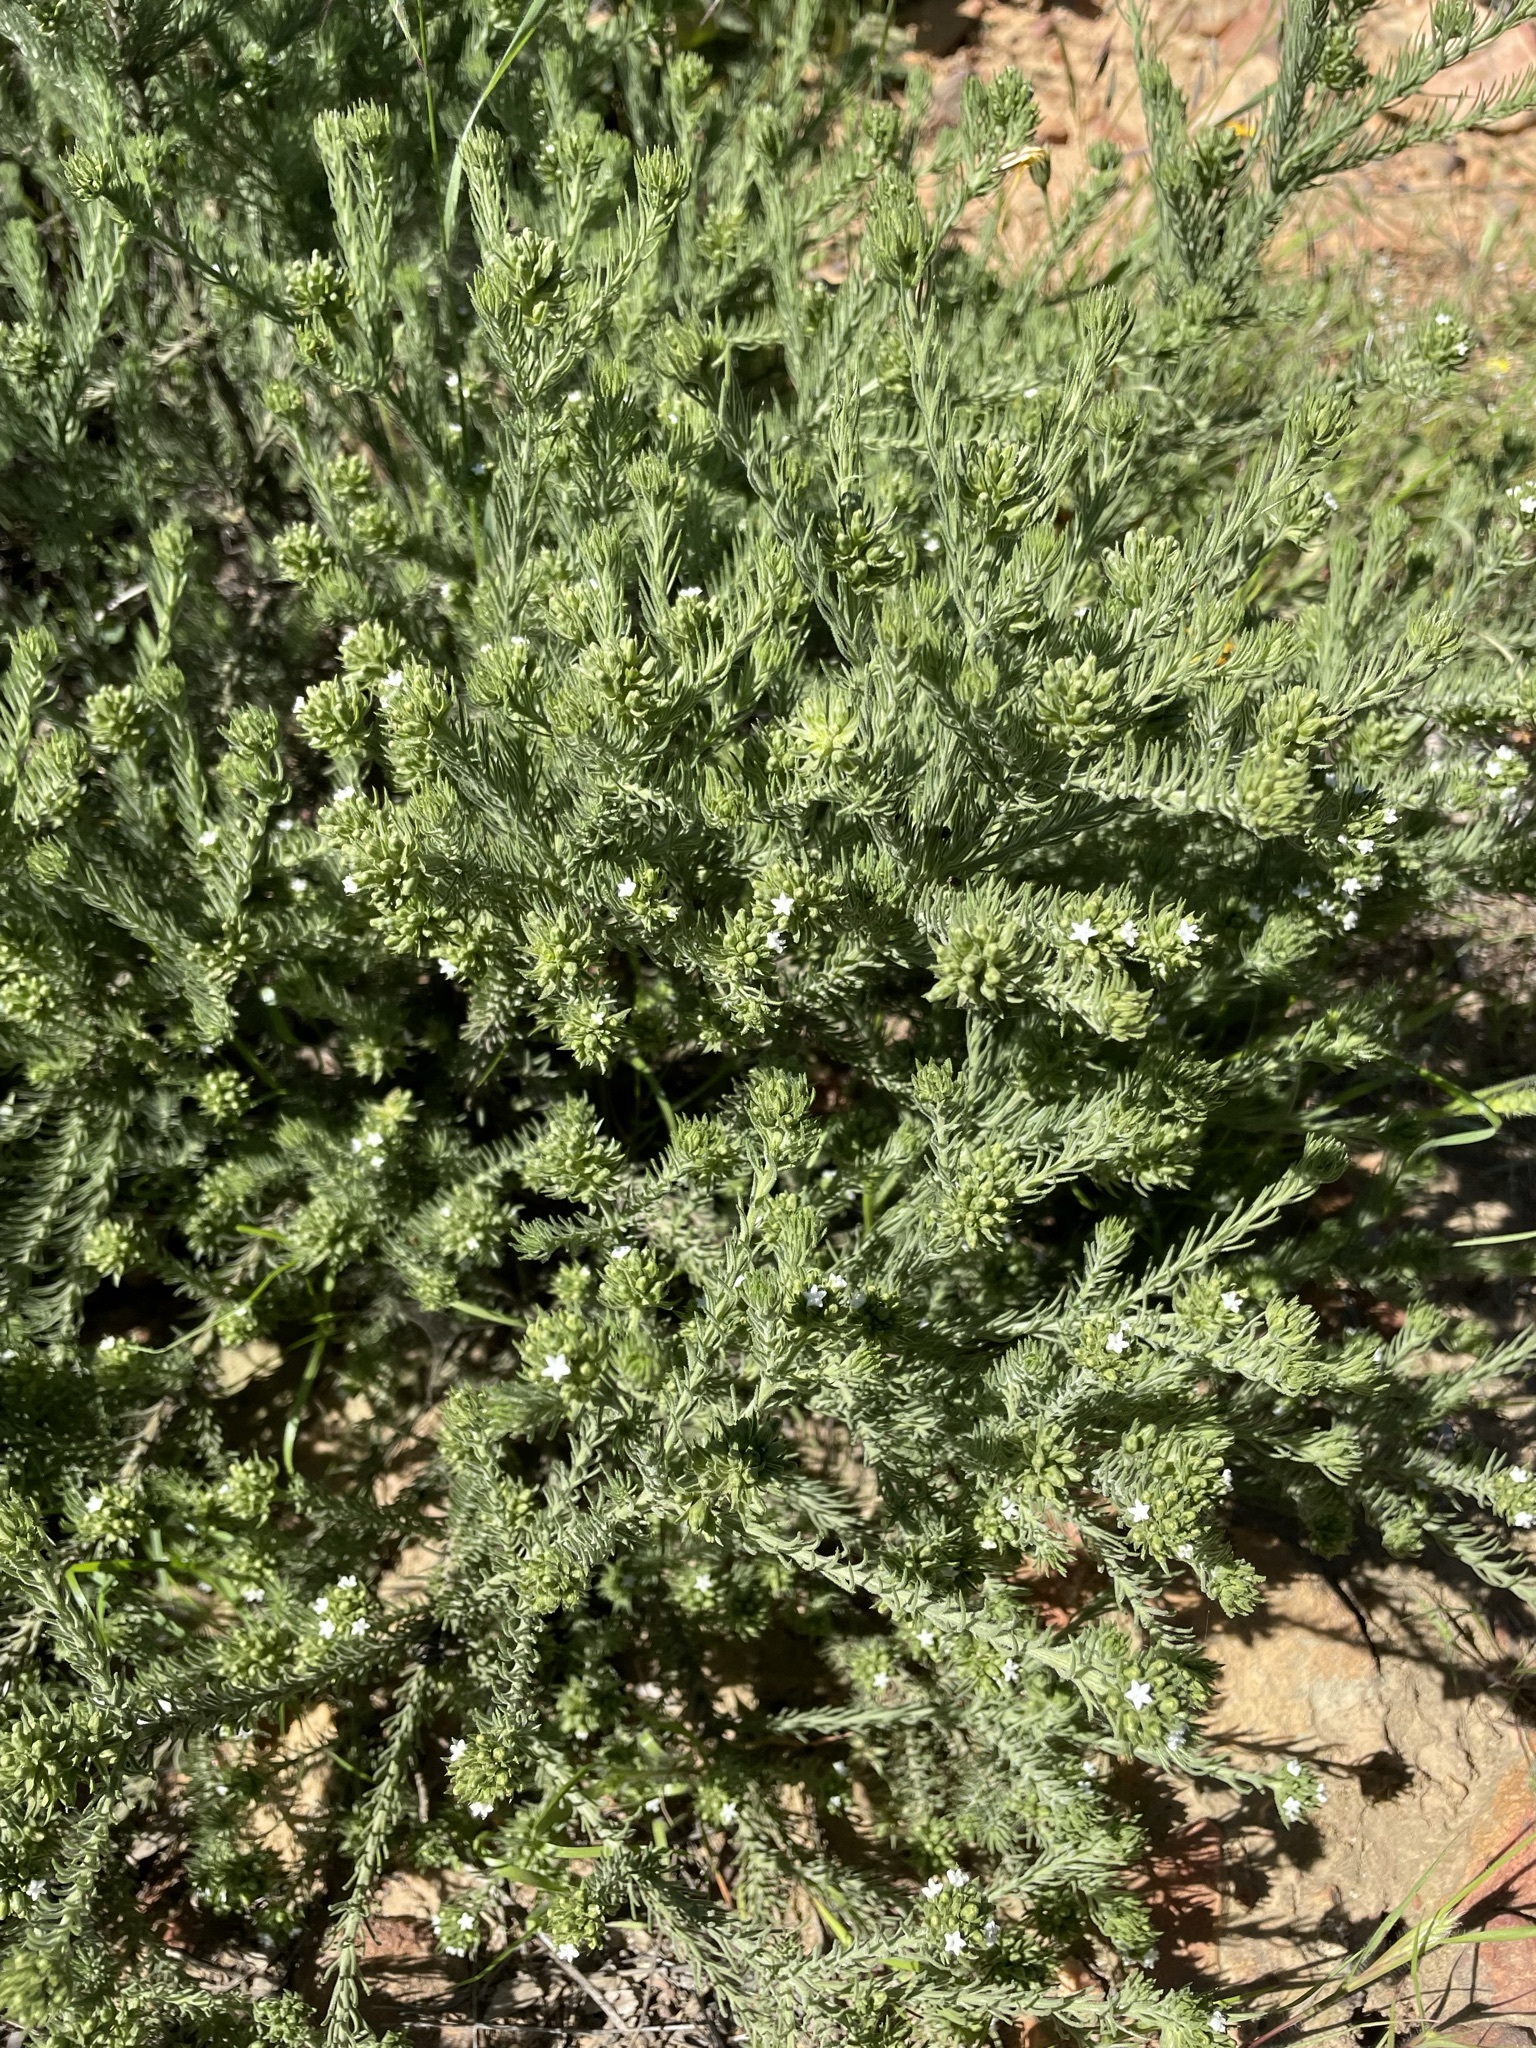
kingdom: Plantae
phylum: Tracheophyta
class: Magnoliopsida
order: Santalales
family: Thesiaceae
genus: Thesium
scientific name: Thesium pubescens
